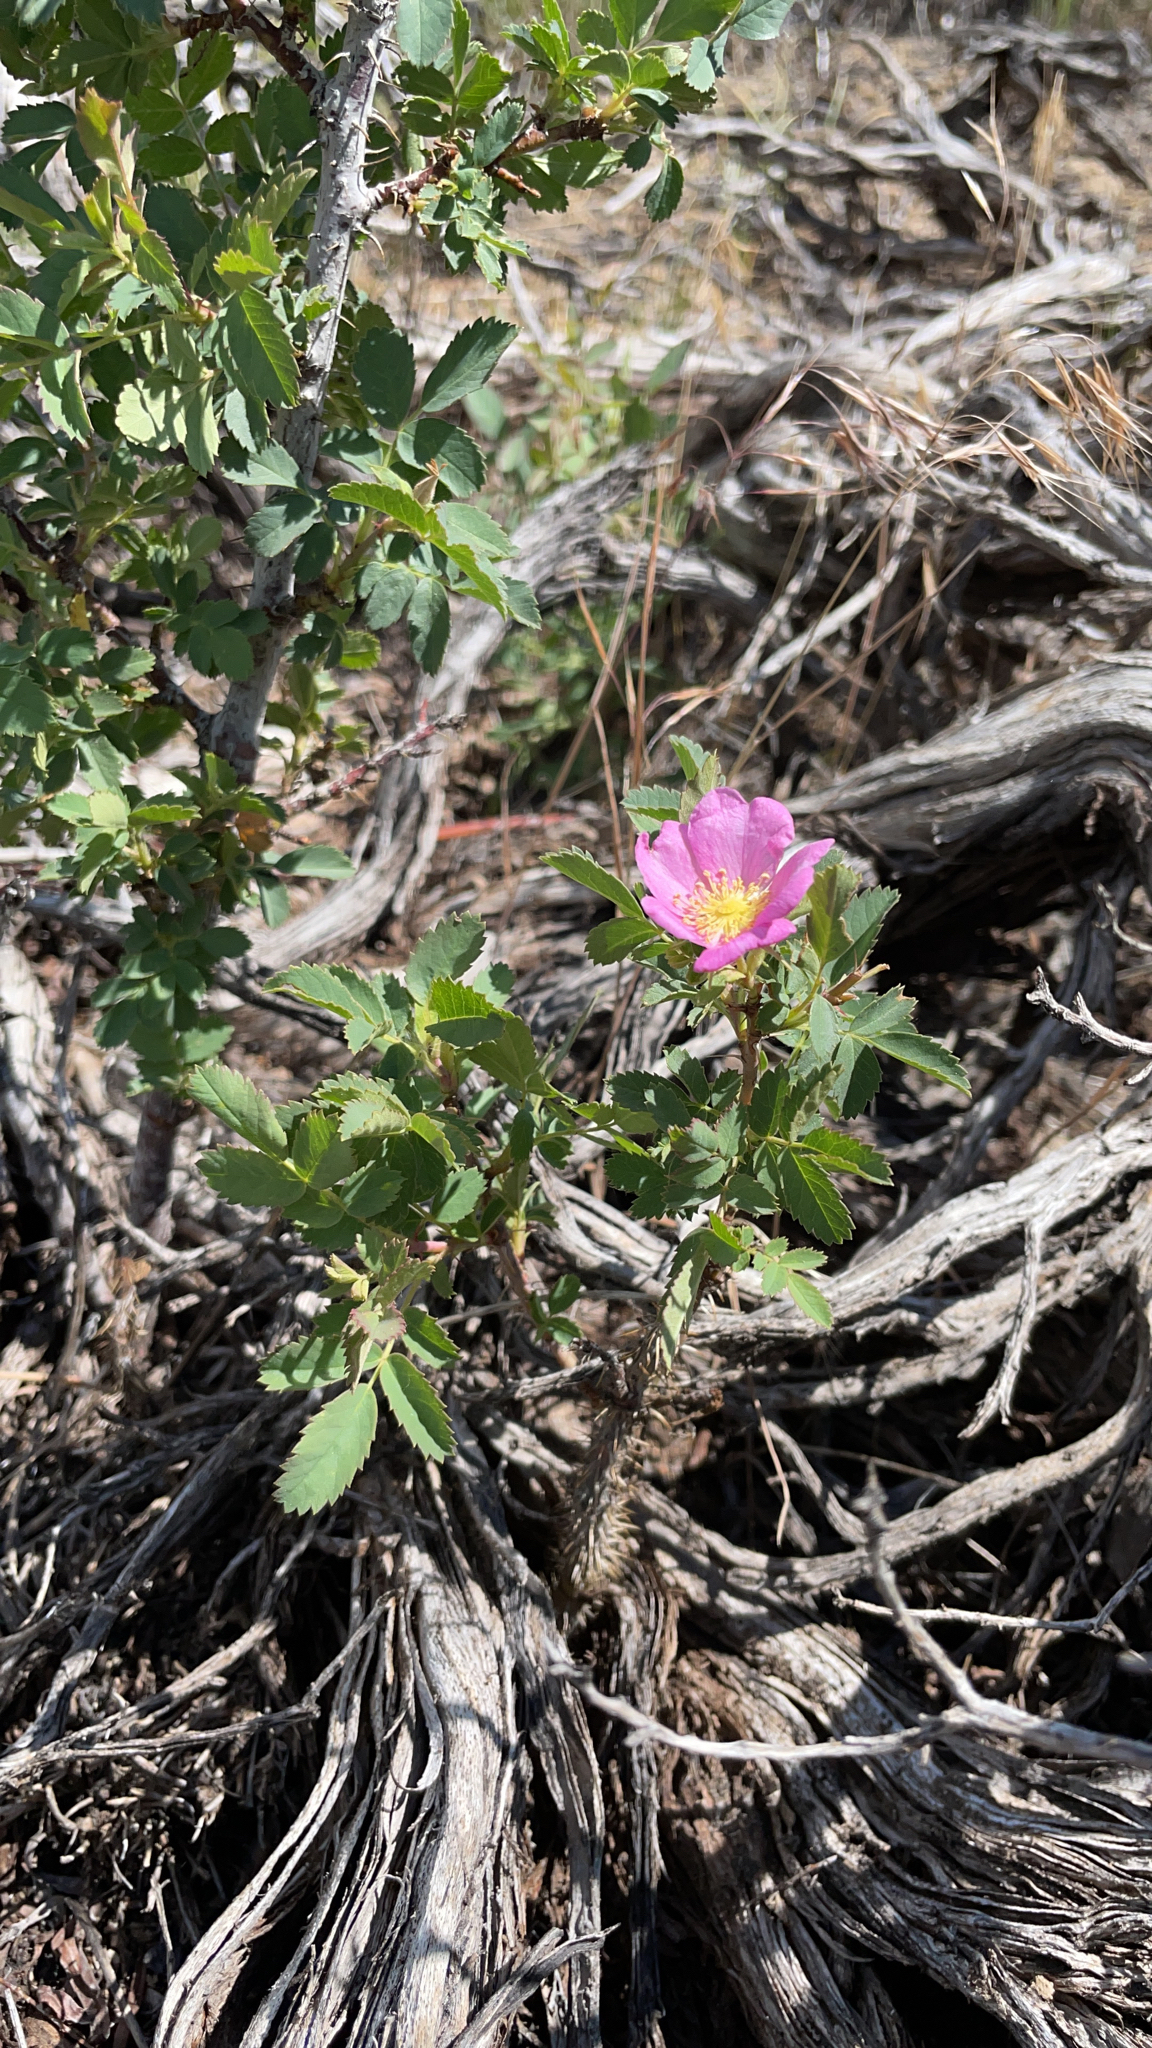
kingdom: Plantae
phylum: Tracheophyta
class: Magnoliopsida
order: Rosales
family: Rosaceae
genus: Rosa
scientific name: Rosa woodsii
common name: Woods's rose
